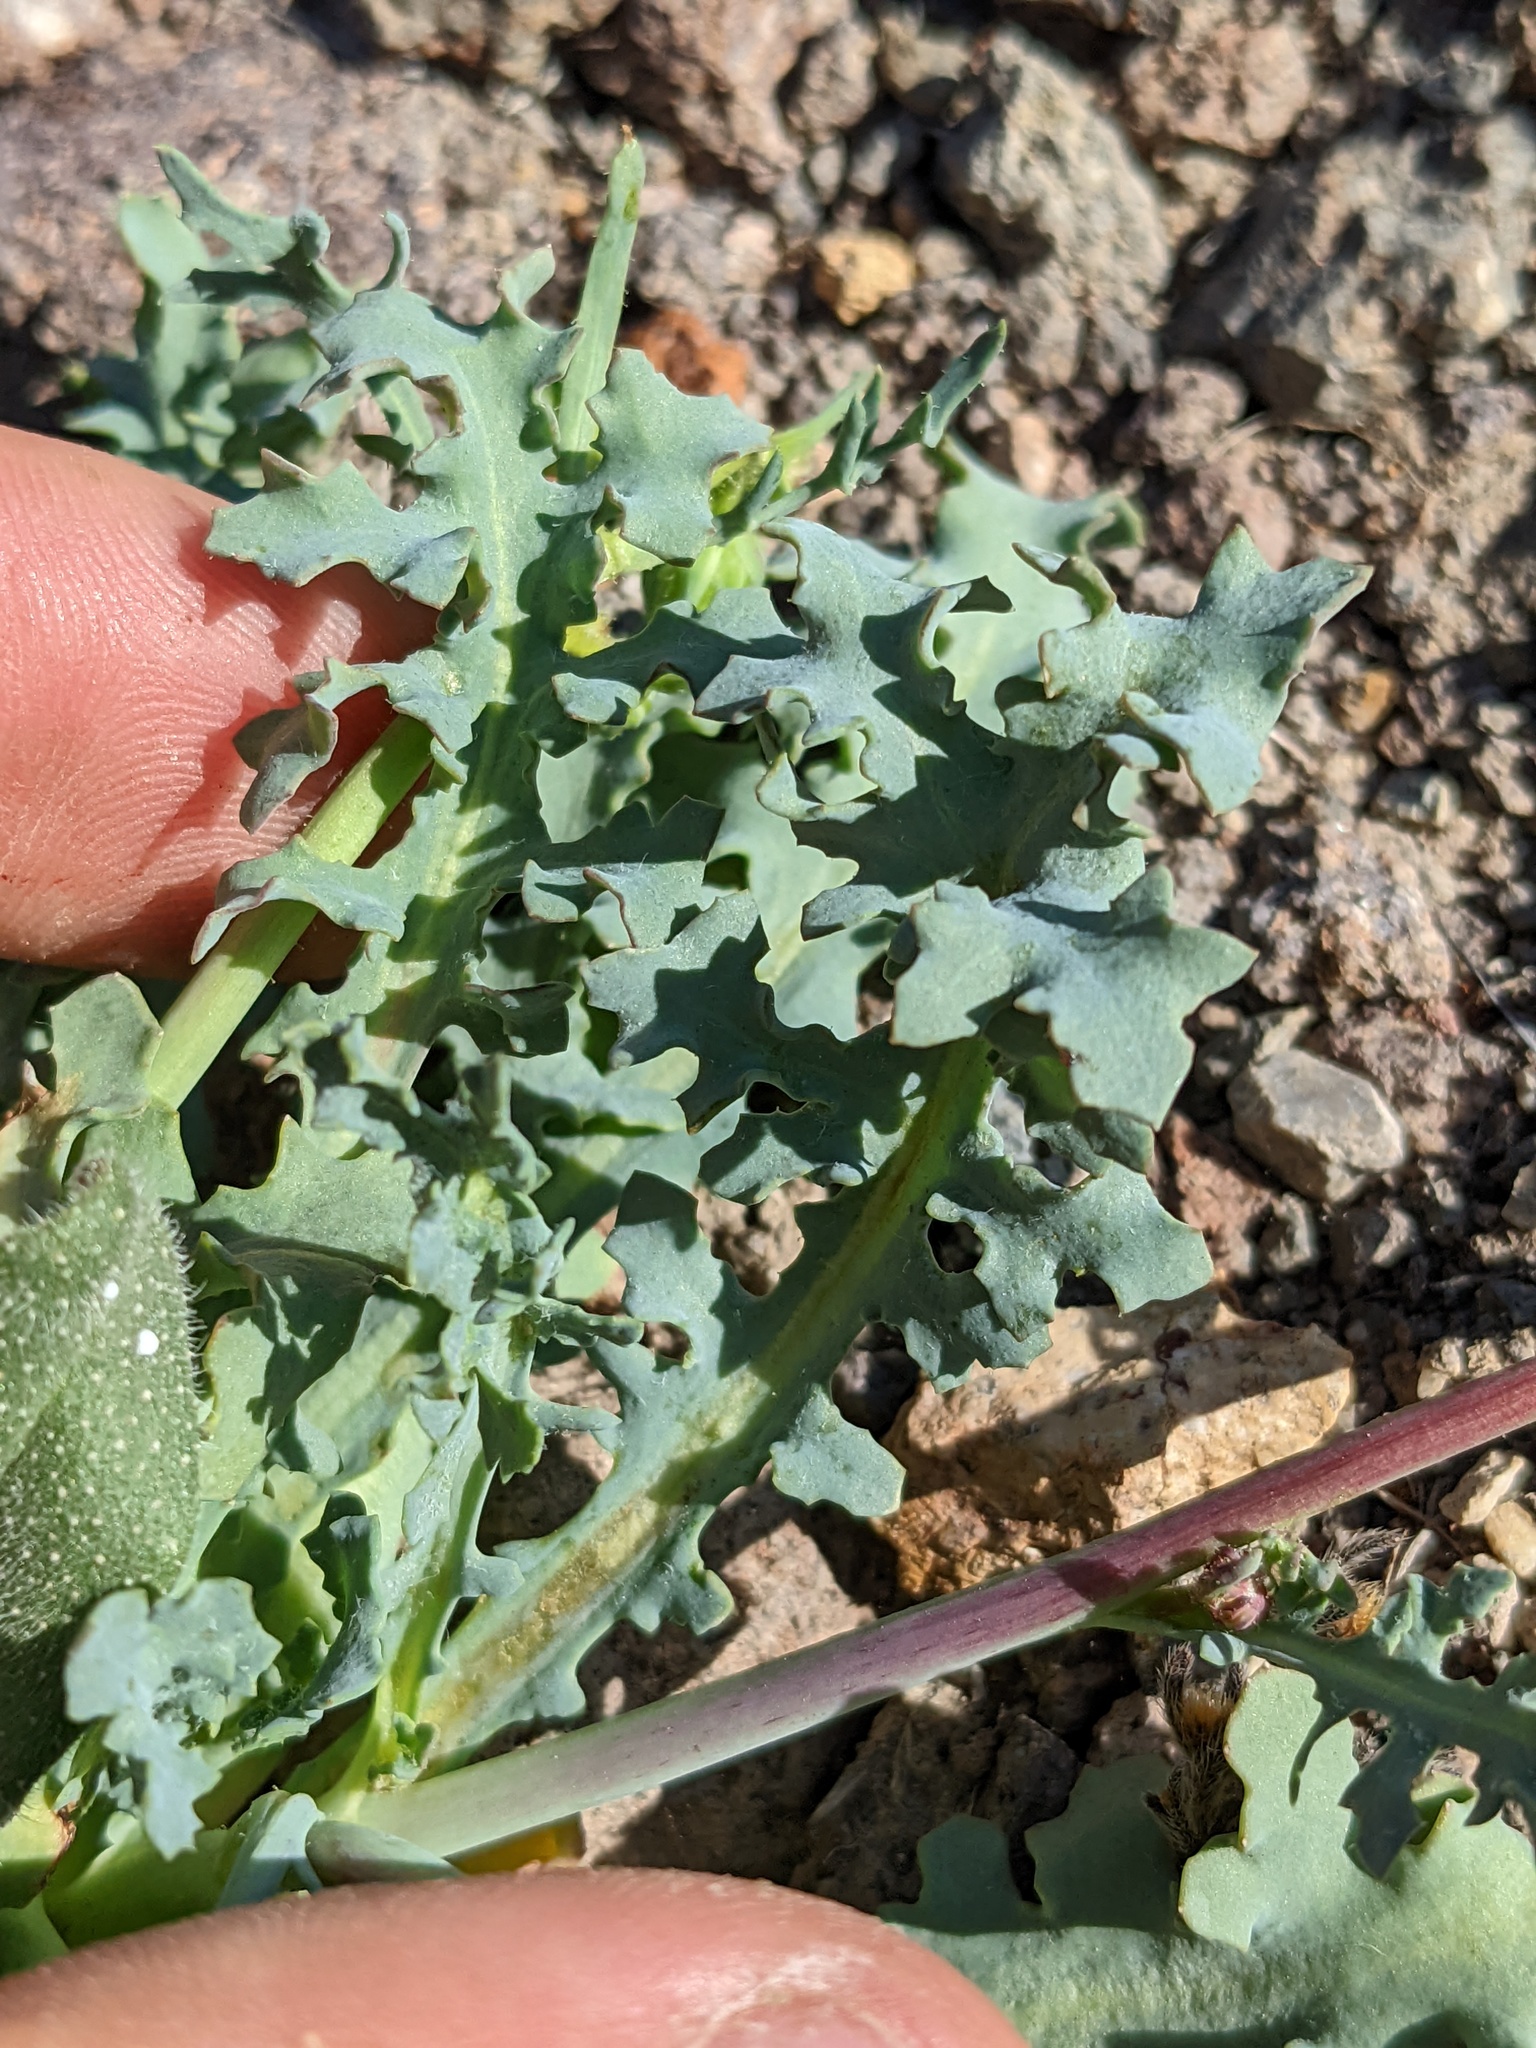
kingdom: Plantae
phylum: Tracheophyta
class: Magnoliopsida
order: Asterales
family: Asteraceae
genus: Malacothrix
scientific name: Malacothrix torreyi
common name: Torrey's desert-dandelion
